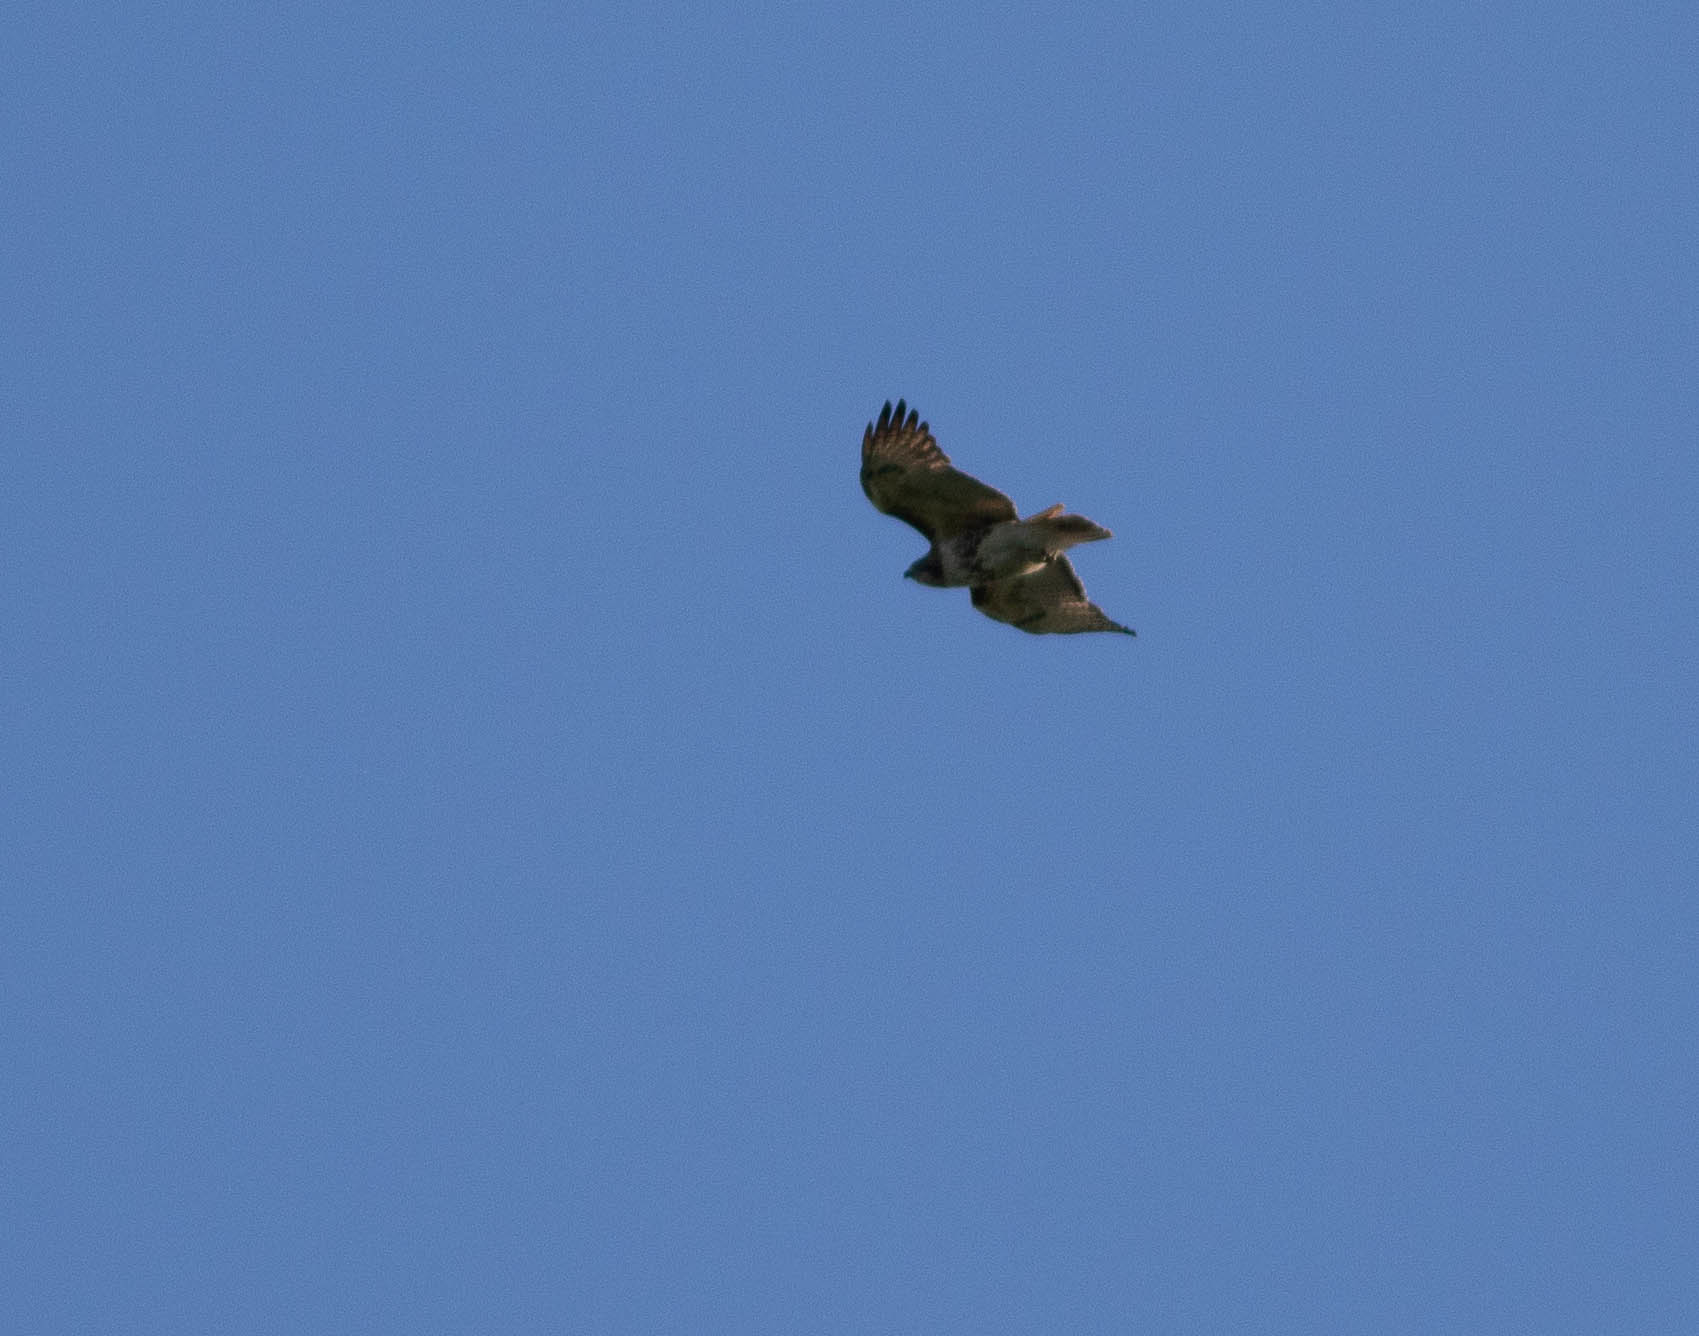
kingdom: Animalia
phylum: Chordata
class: Aves
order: Accipitriformes
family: Accipitridae
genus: Buteo
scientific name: Buteo jamaicensis
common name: Red-tailed hawk
